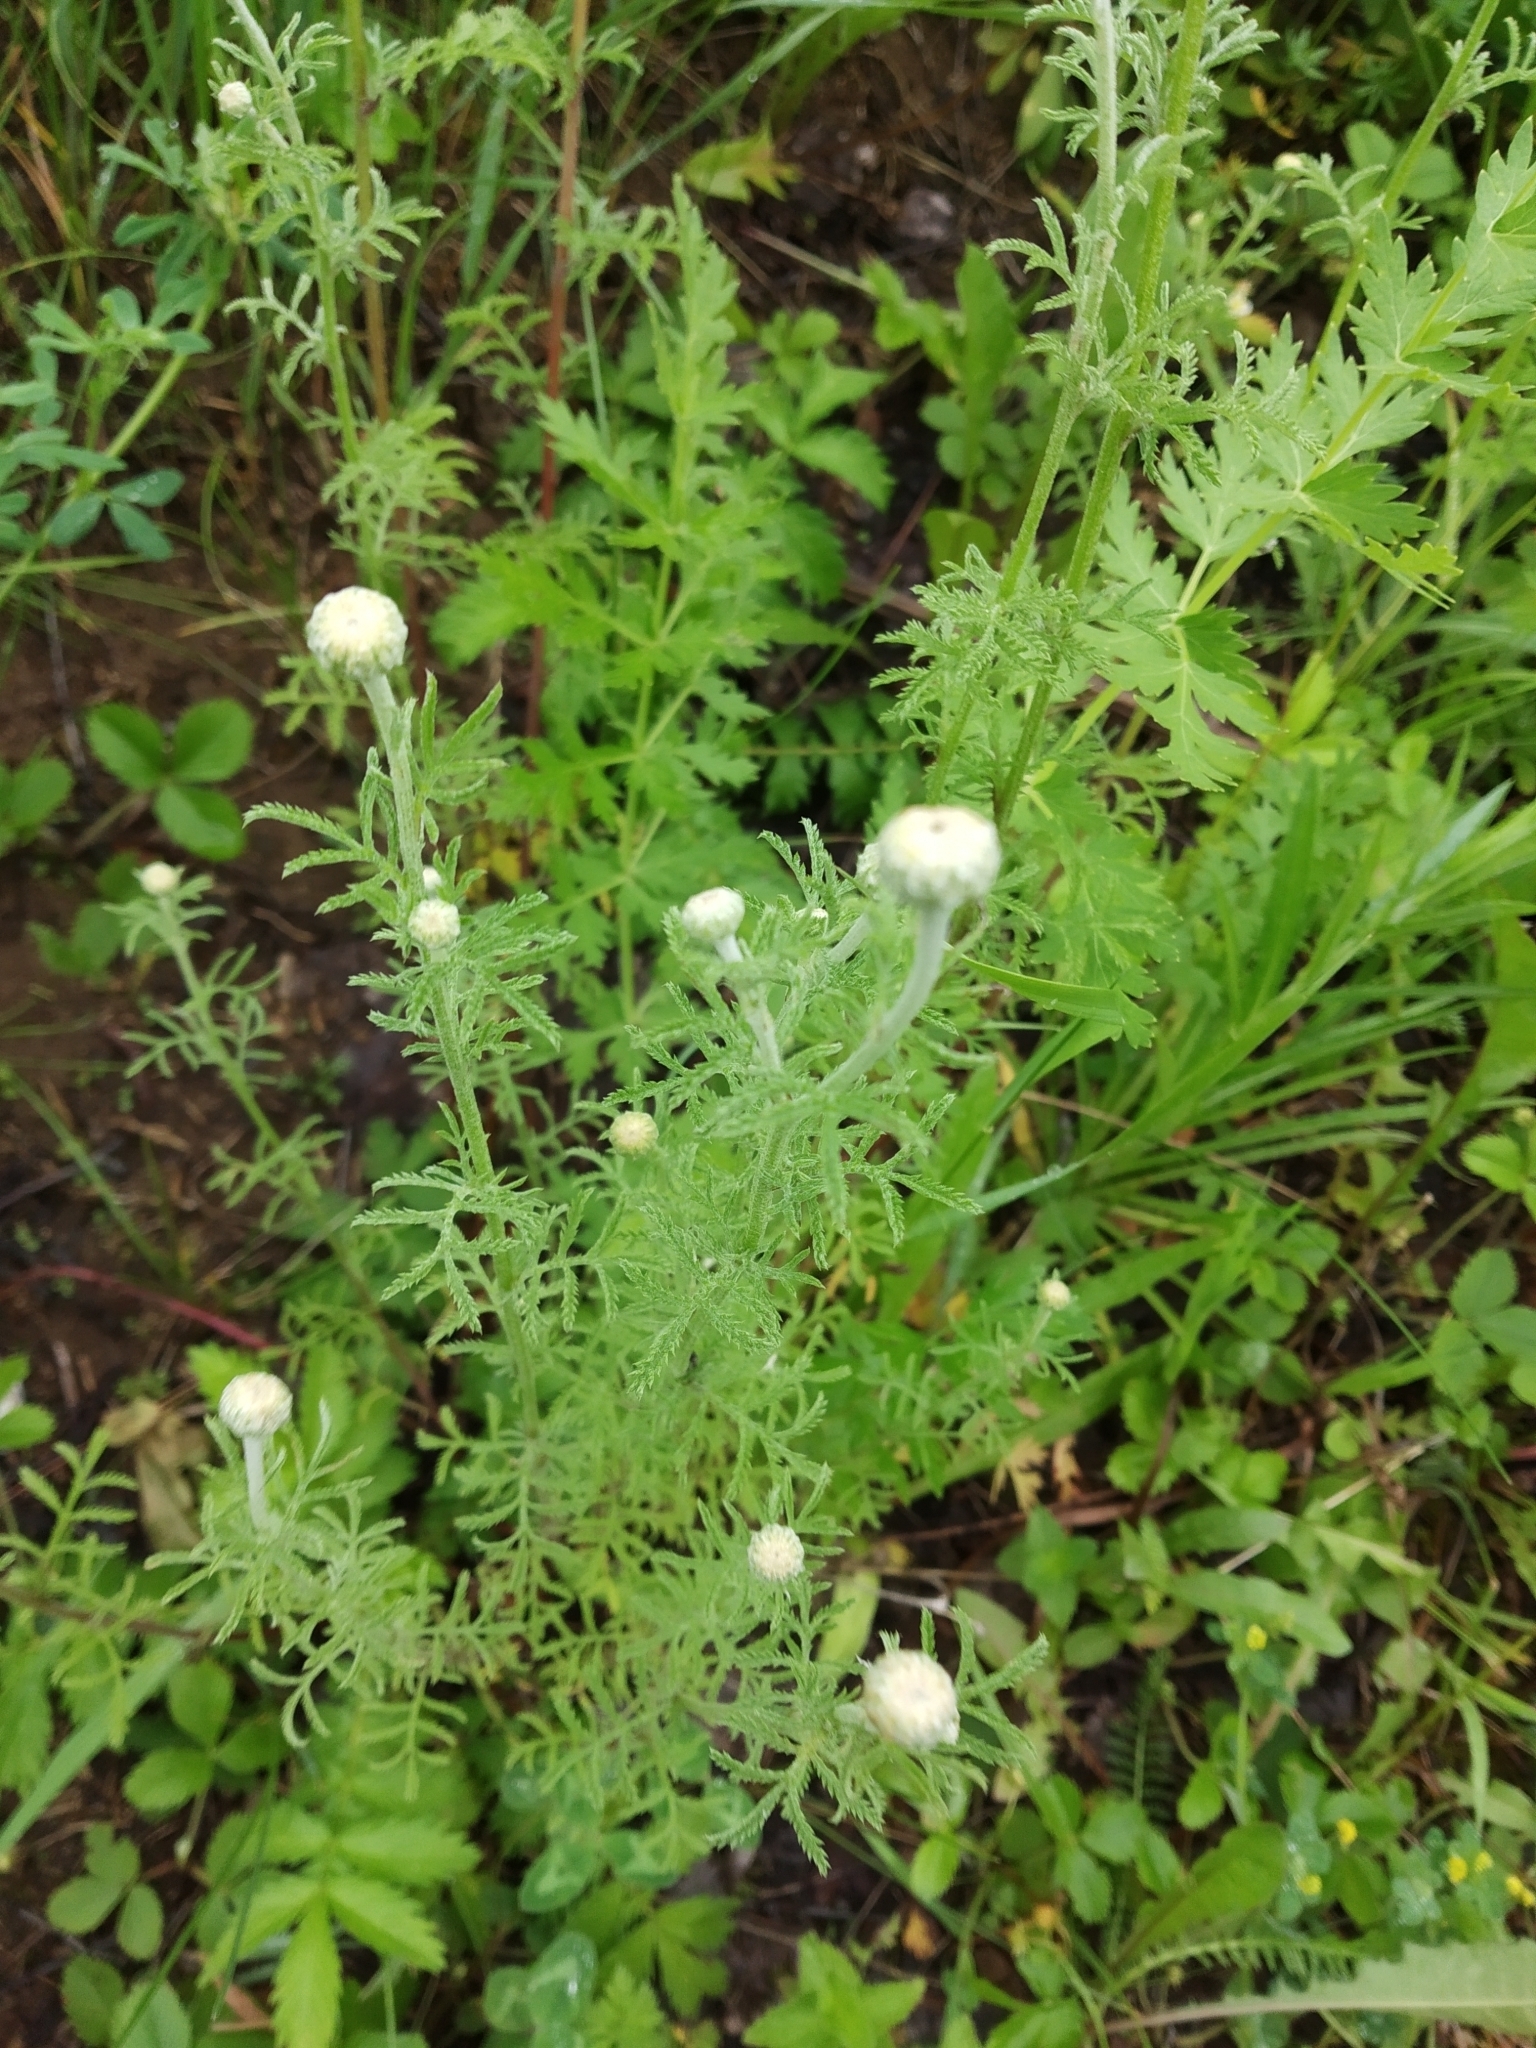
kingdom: Plantae
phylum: Tracheophyta
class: Magnoliopsida
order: Asterales
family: Asteraceae
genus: Cota
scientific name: Cota tinctoria
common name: Golden chamomile
